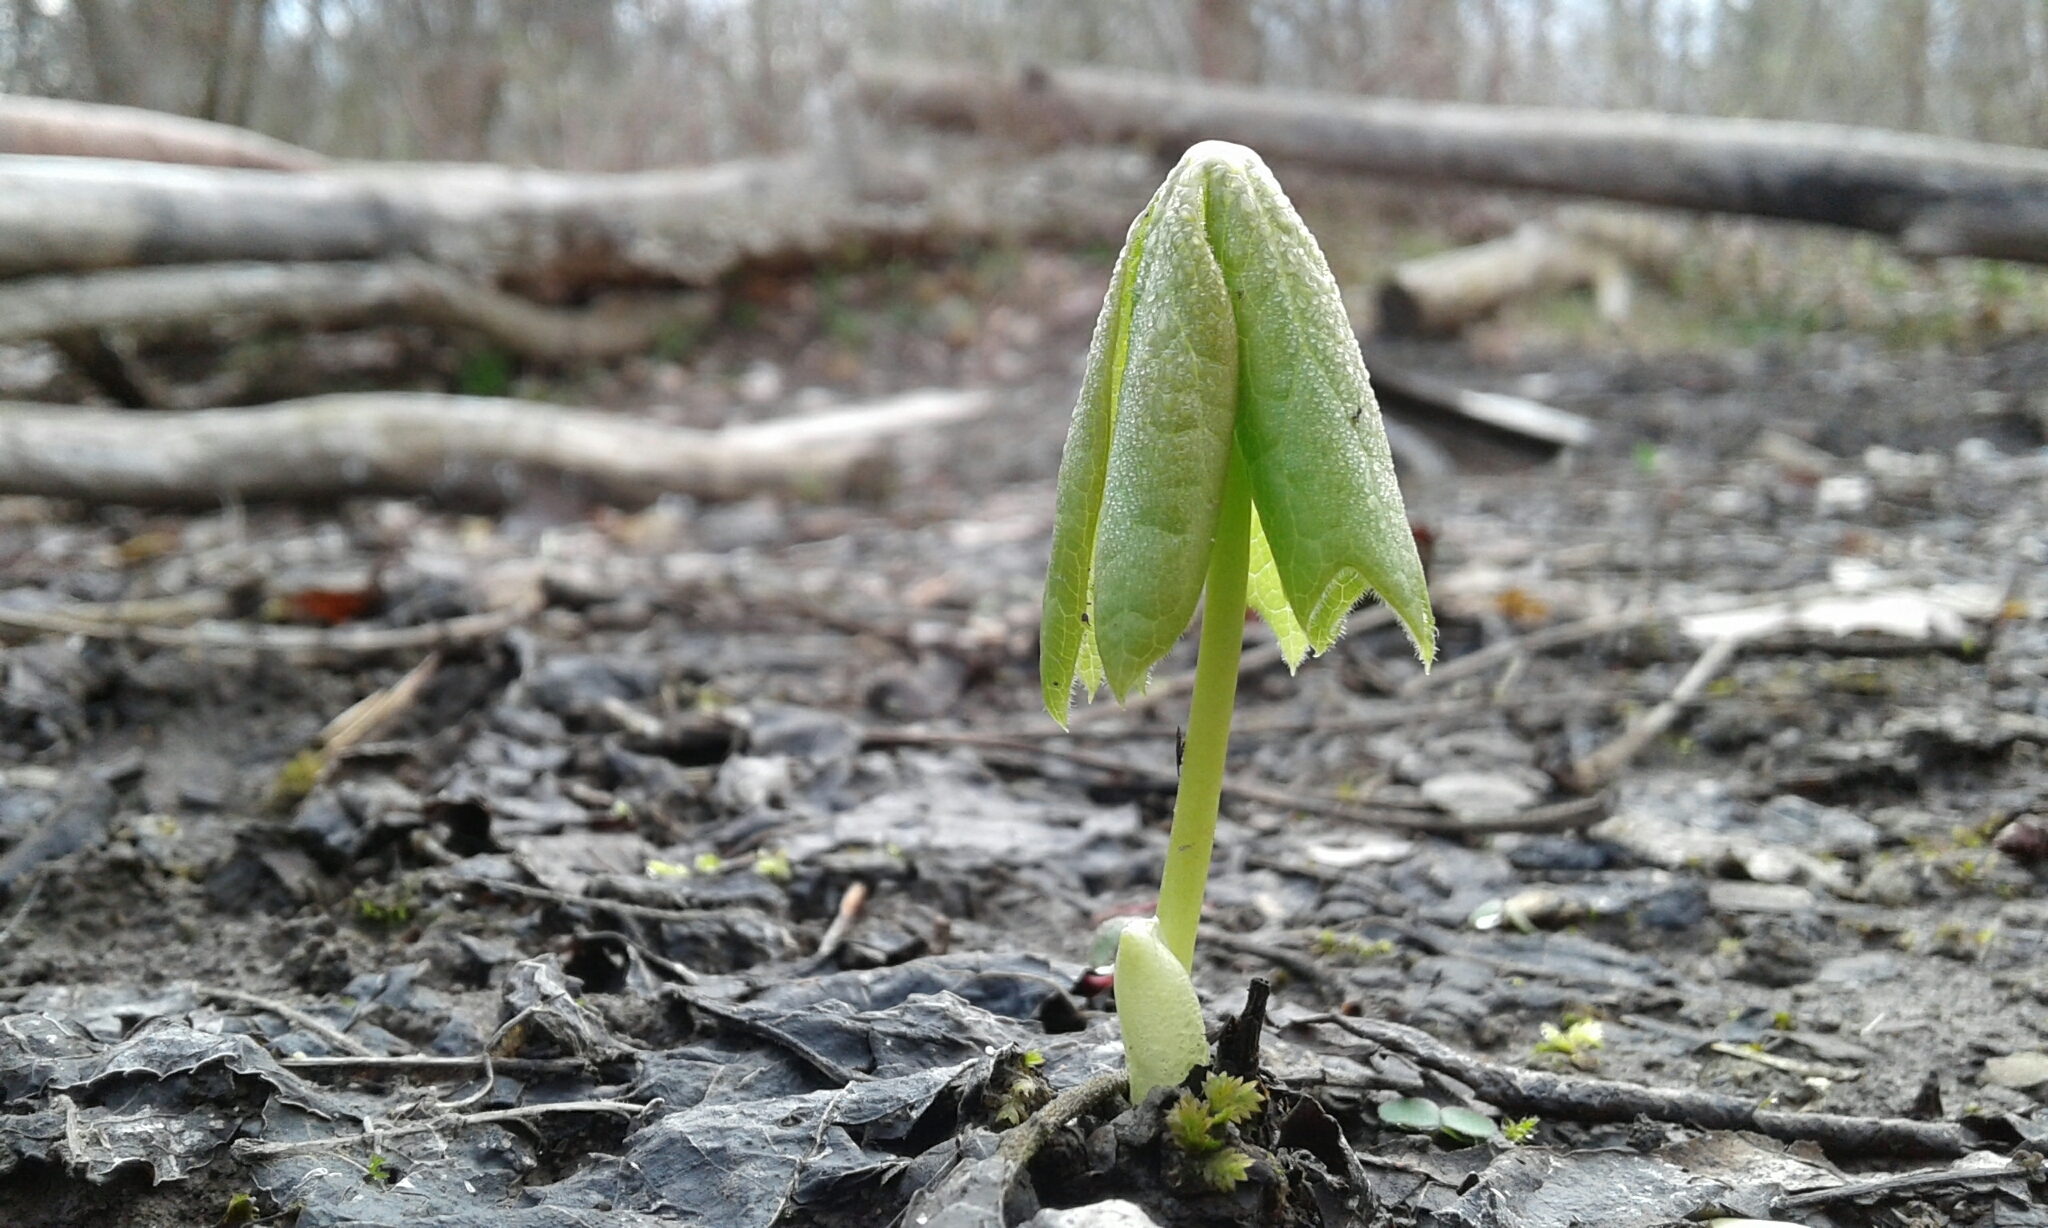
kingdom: Plantae
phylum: Tracheophyta
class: Magnoliopsida
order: Ranunculales
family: Berberidaceae
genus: Podophyllum
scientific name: Podophyllum peltatum
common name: Wild mandrake
